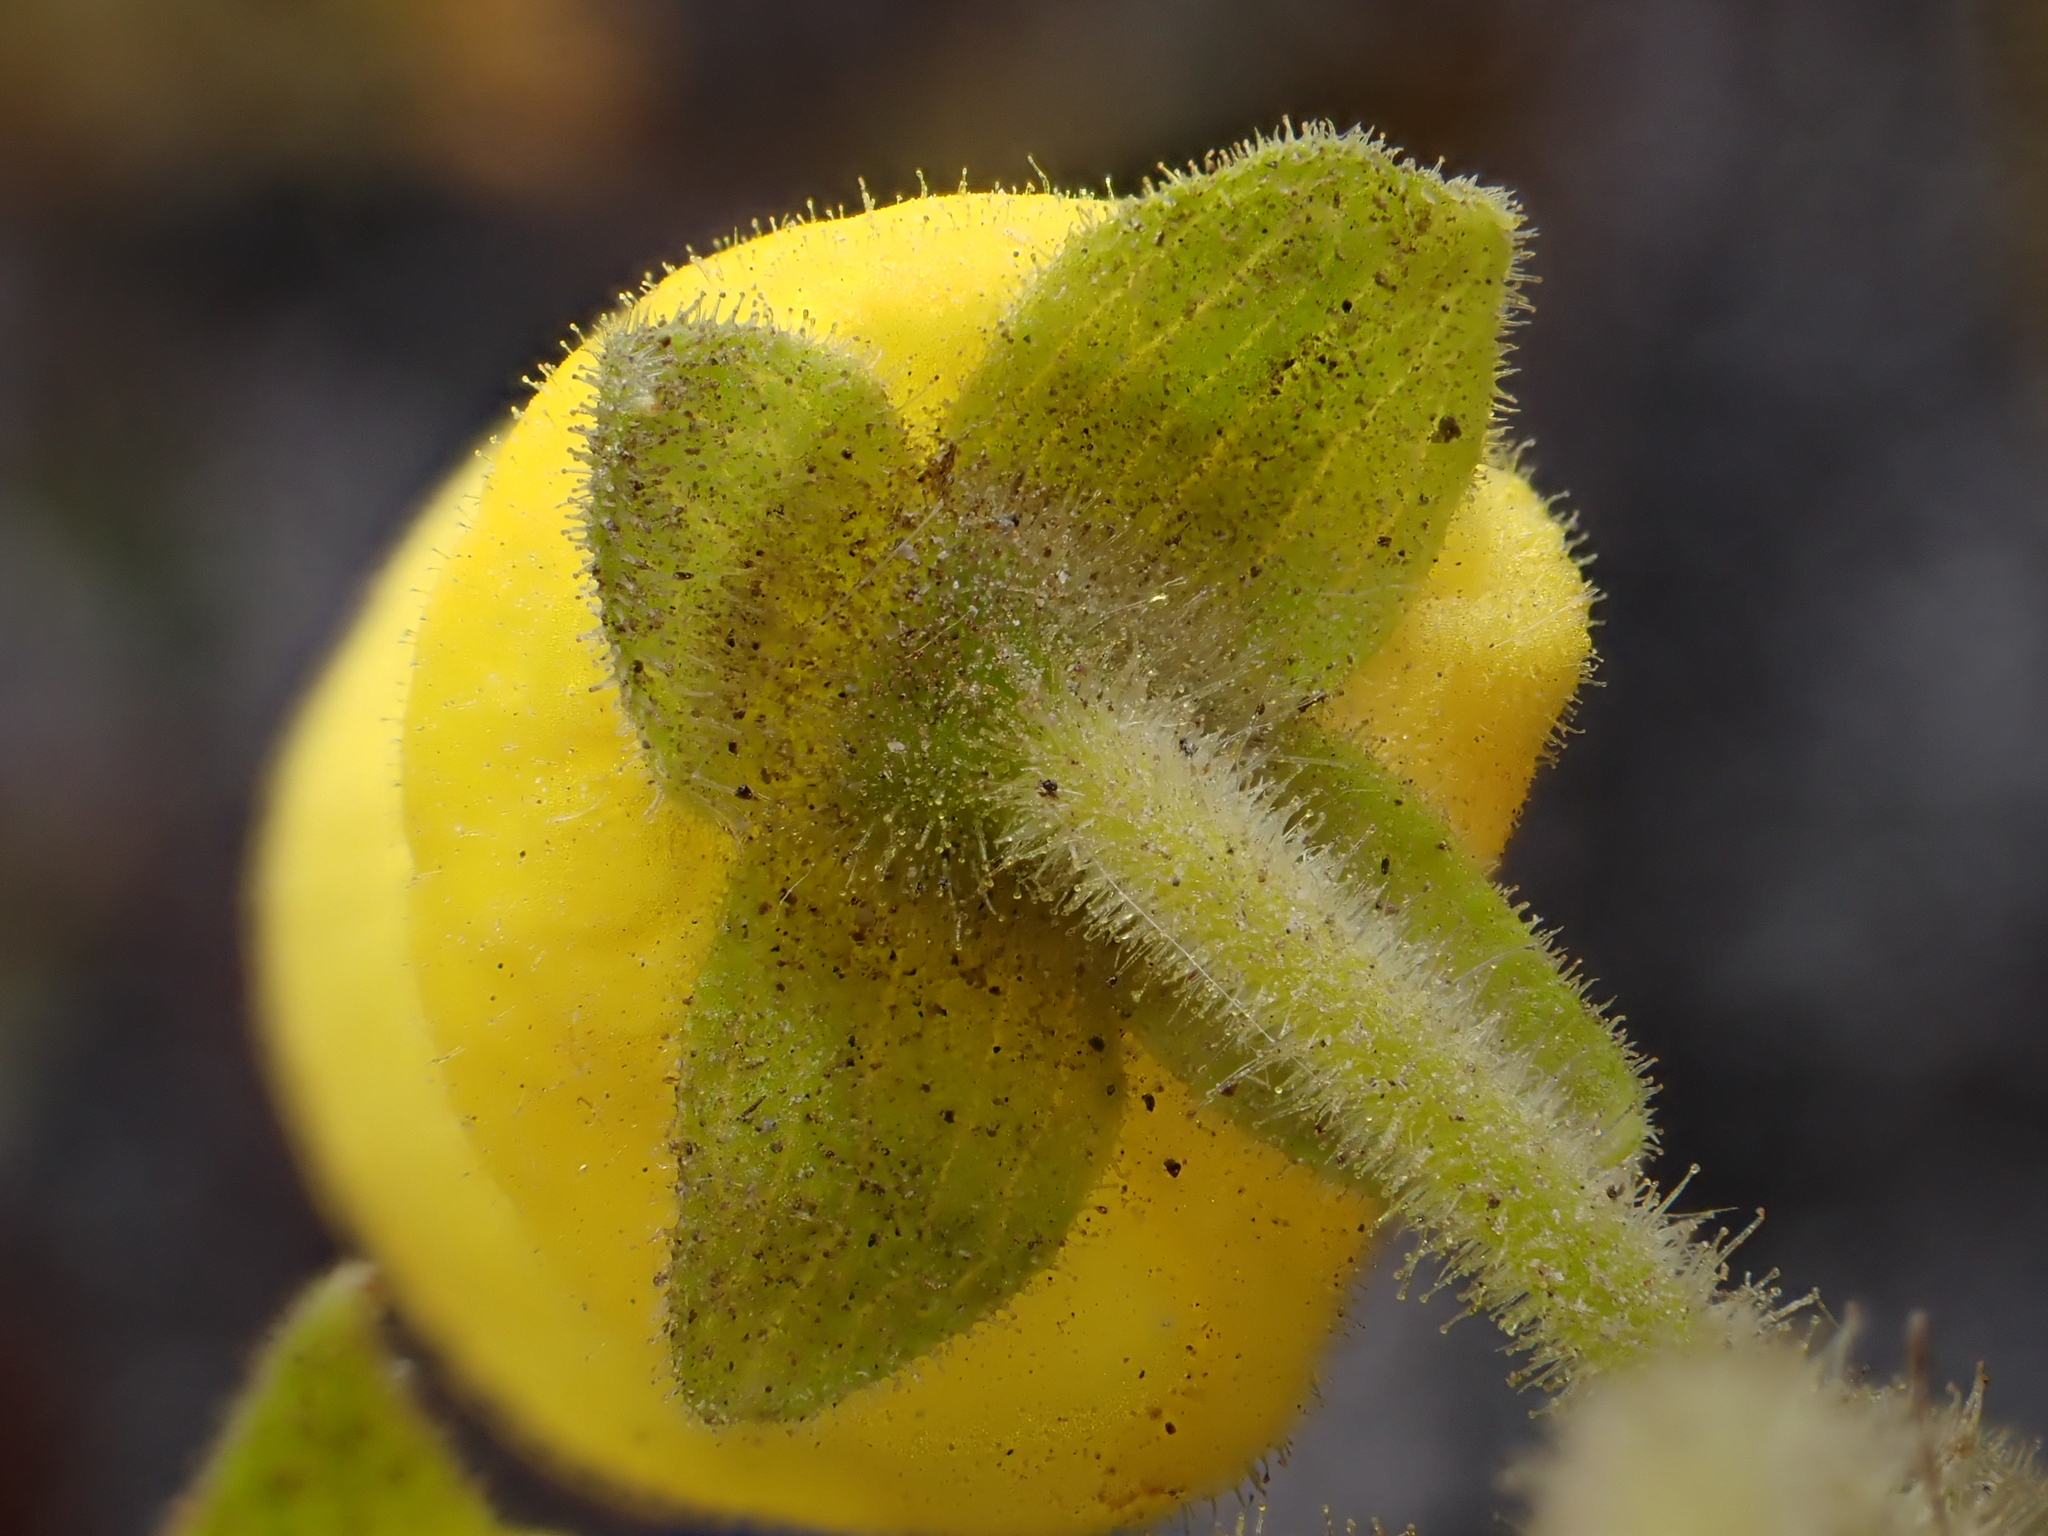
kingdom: Plantae
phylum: Tracheophyta
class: Magnoliopsida
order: Lamiales
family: Calceolariaceae
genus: Calceolaria
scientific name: Calceolaria crenata
